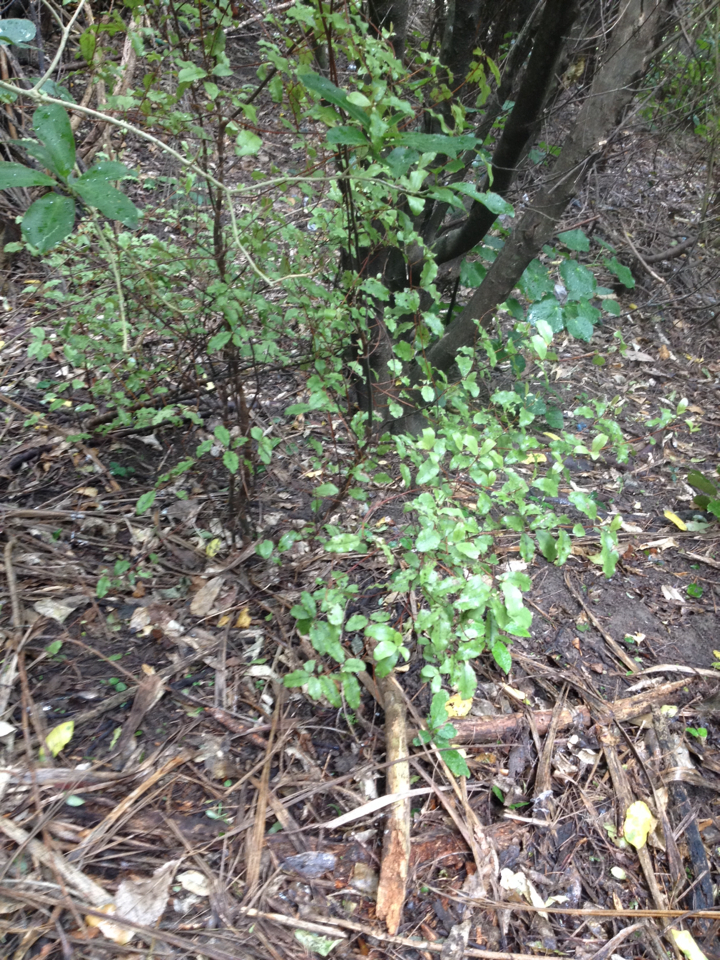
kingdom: Plantae
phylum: Tracheophyta
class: Magnoliopsida
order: Ericales
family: Primulaceae
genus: Myrsine
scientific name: Myrsine australis
